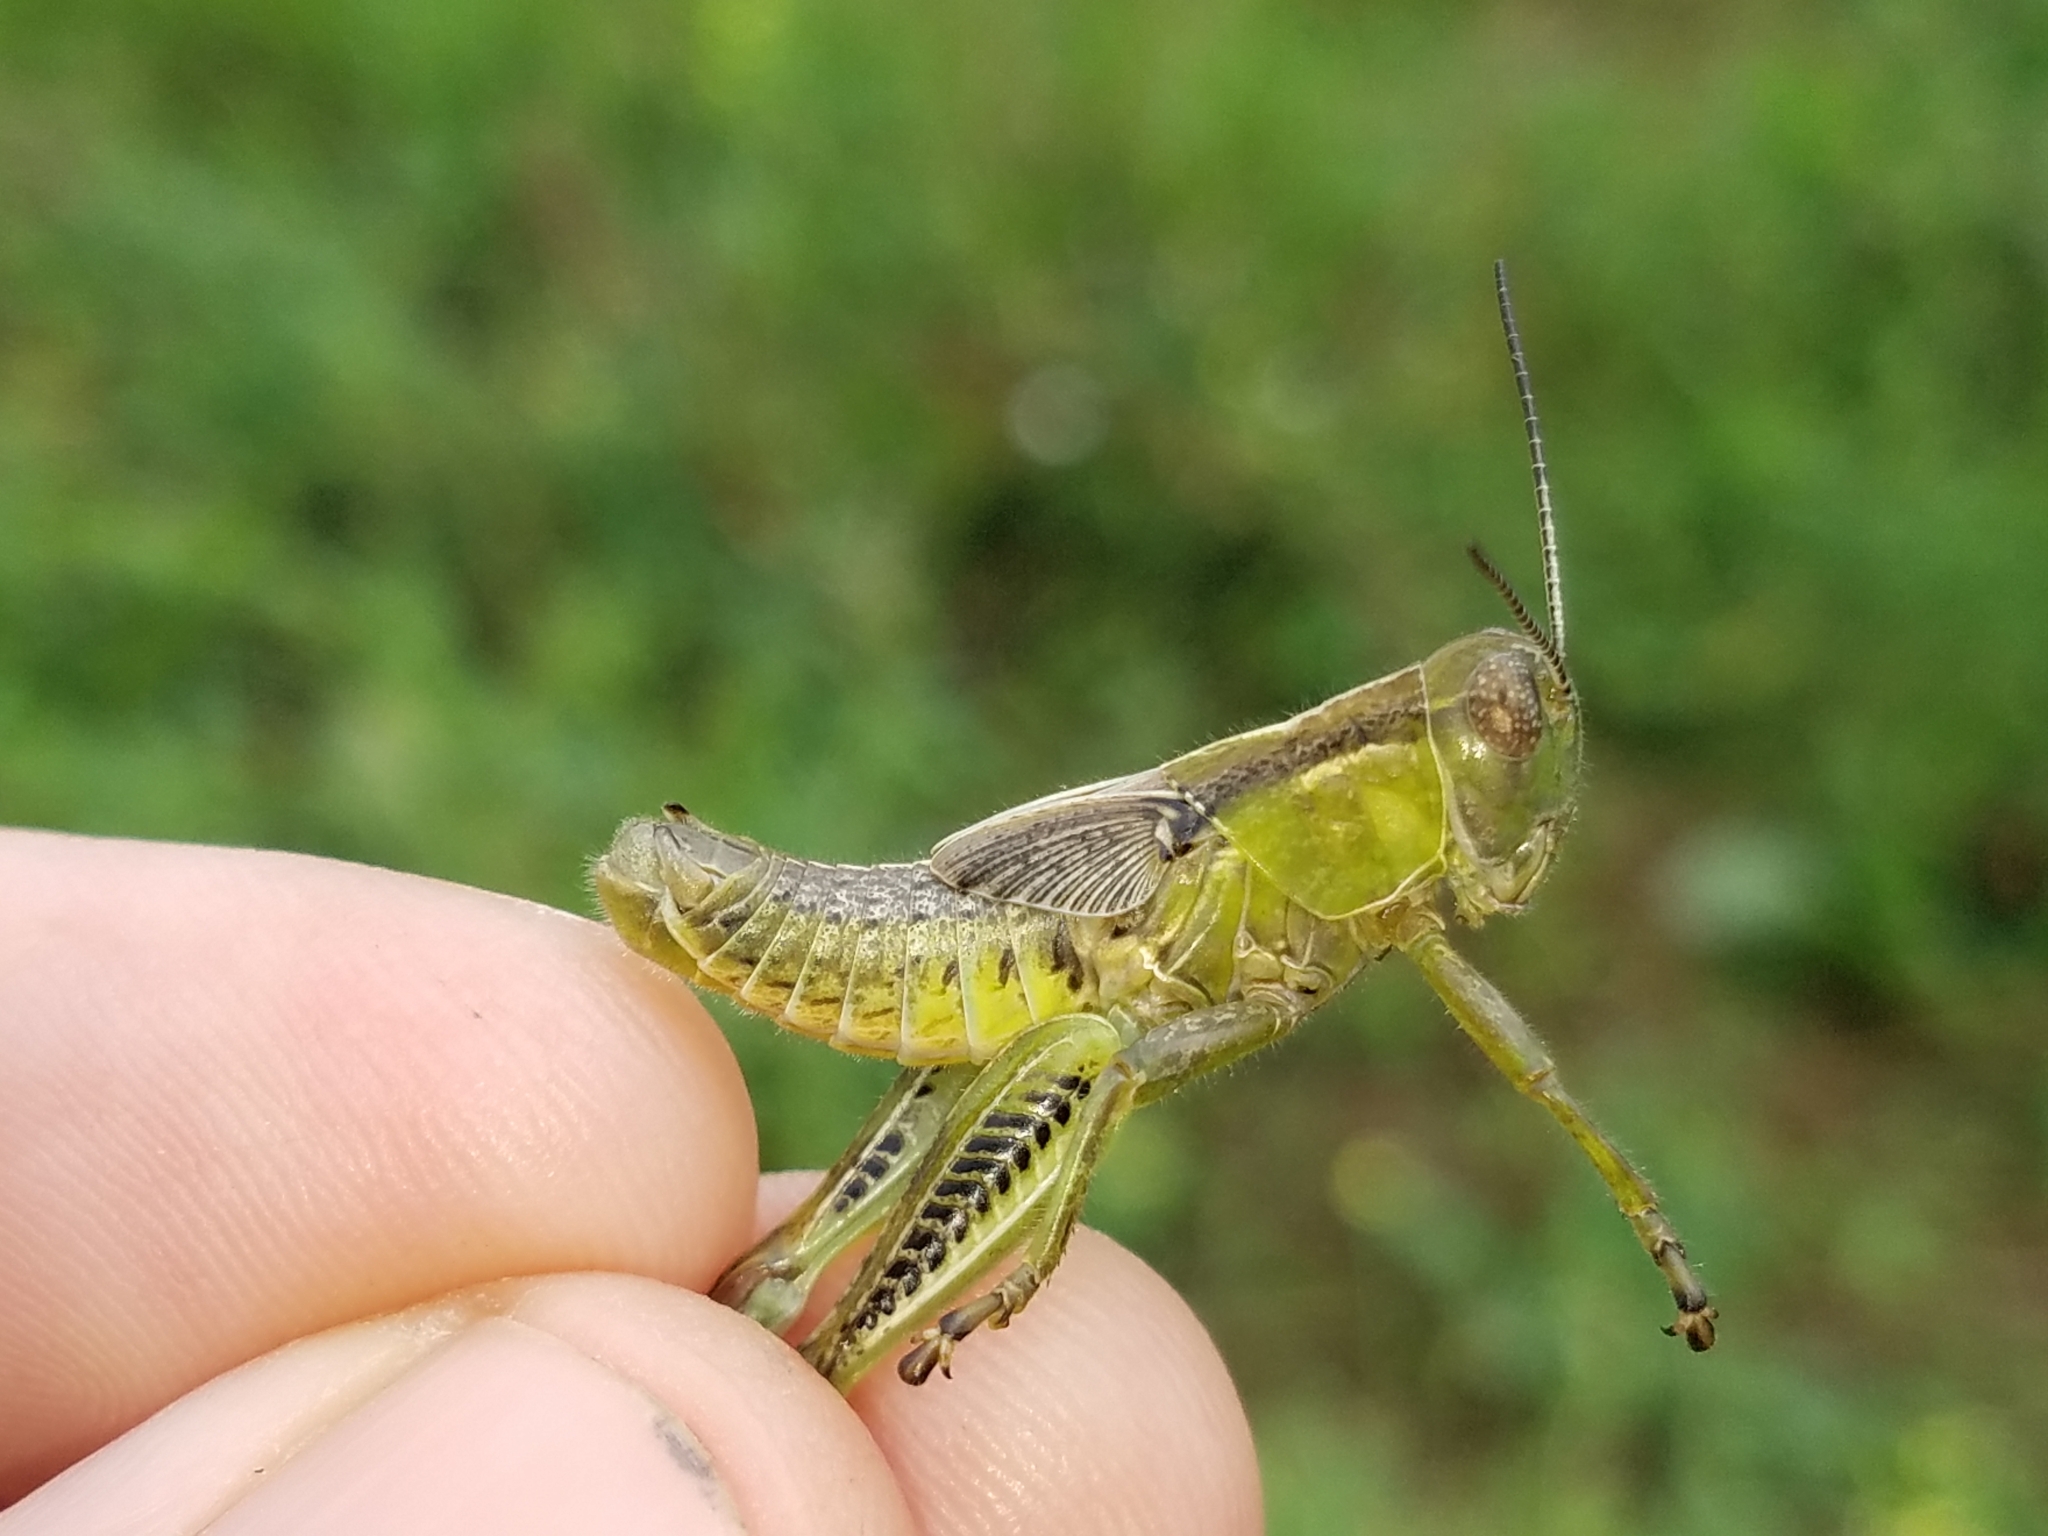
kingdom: Animalia
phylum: Arthropoda
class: Insecta
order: Orthoptera
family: Acrididae
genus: Melanoplus
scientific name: Melanoplus differentialis
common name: Differential grasshopper
